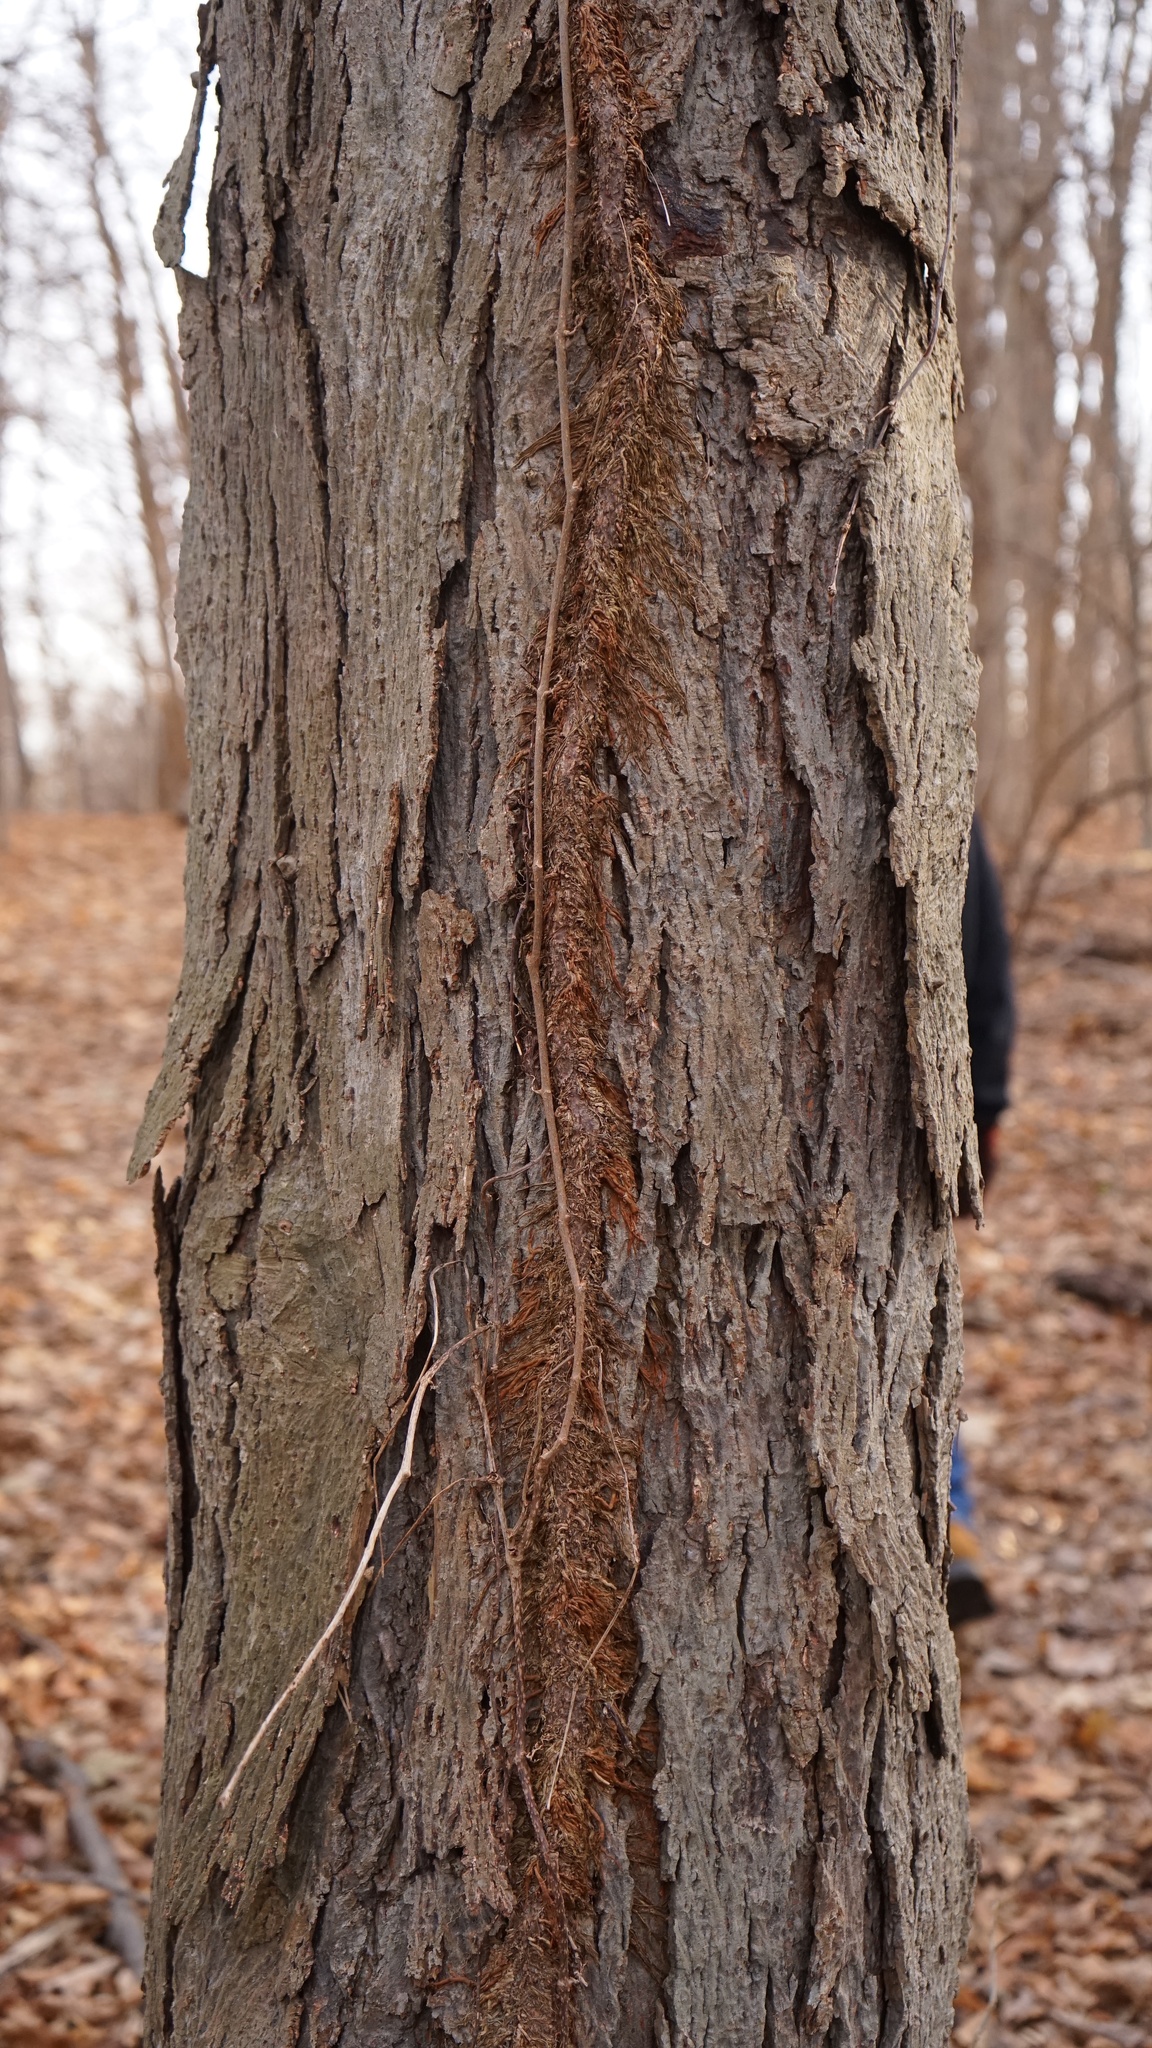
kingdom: Plantae
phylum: Tracheophyta
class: Magnoliopsida
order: Fagales
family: Juglandaceae
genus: Carya
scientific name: Carya ovata
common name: Shagbark hickory
